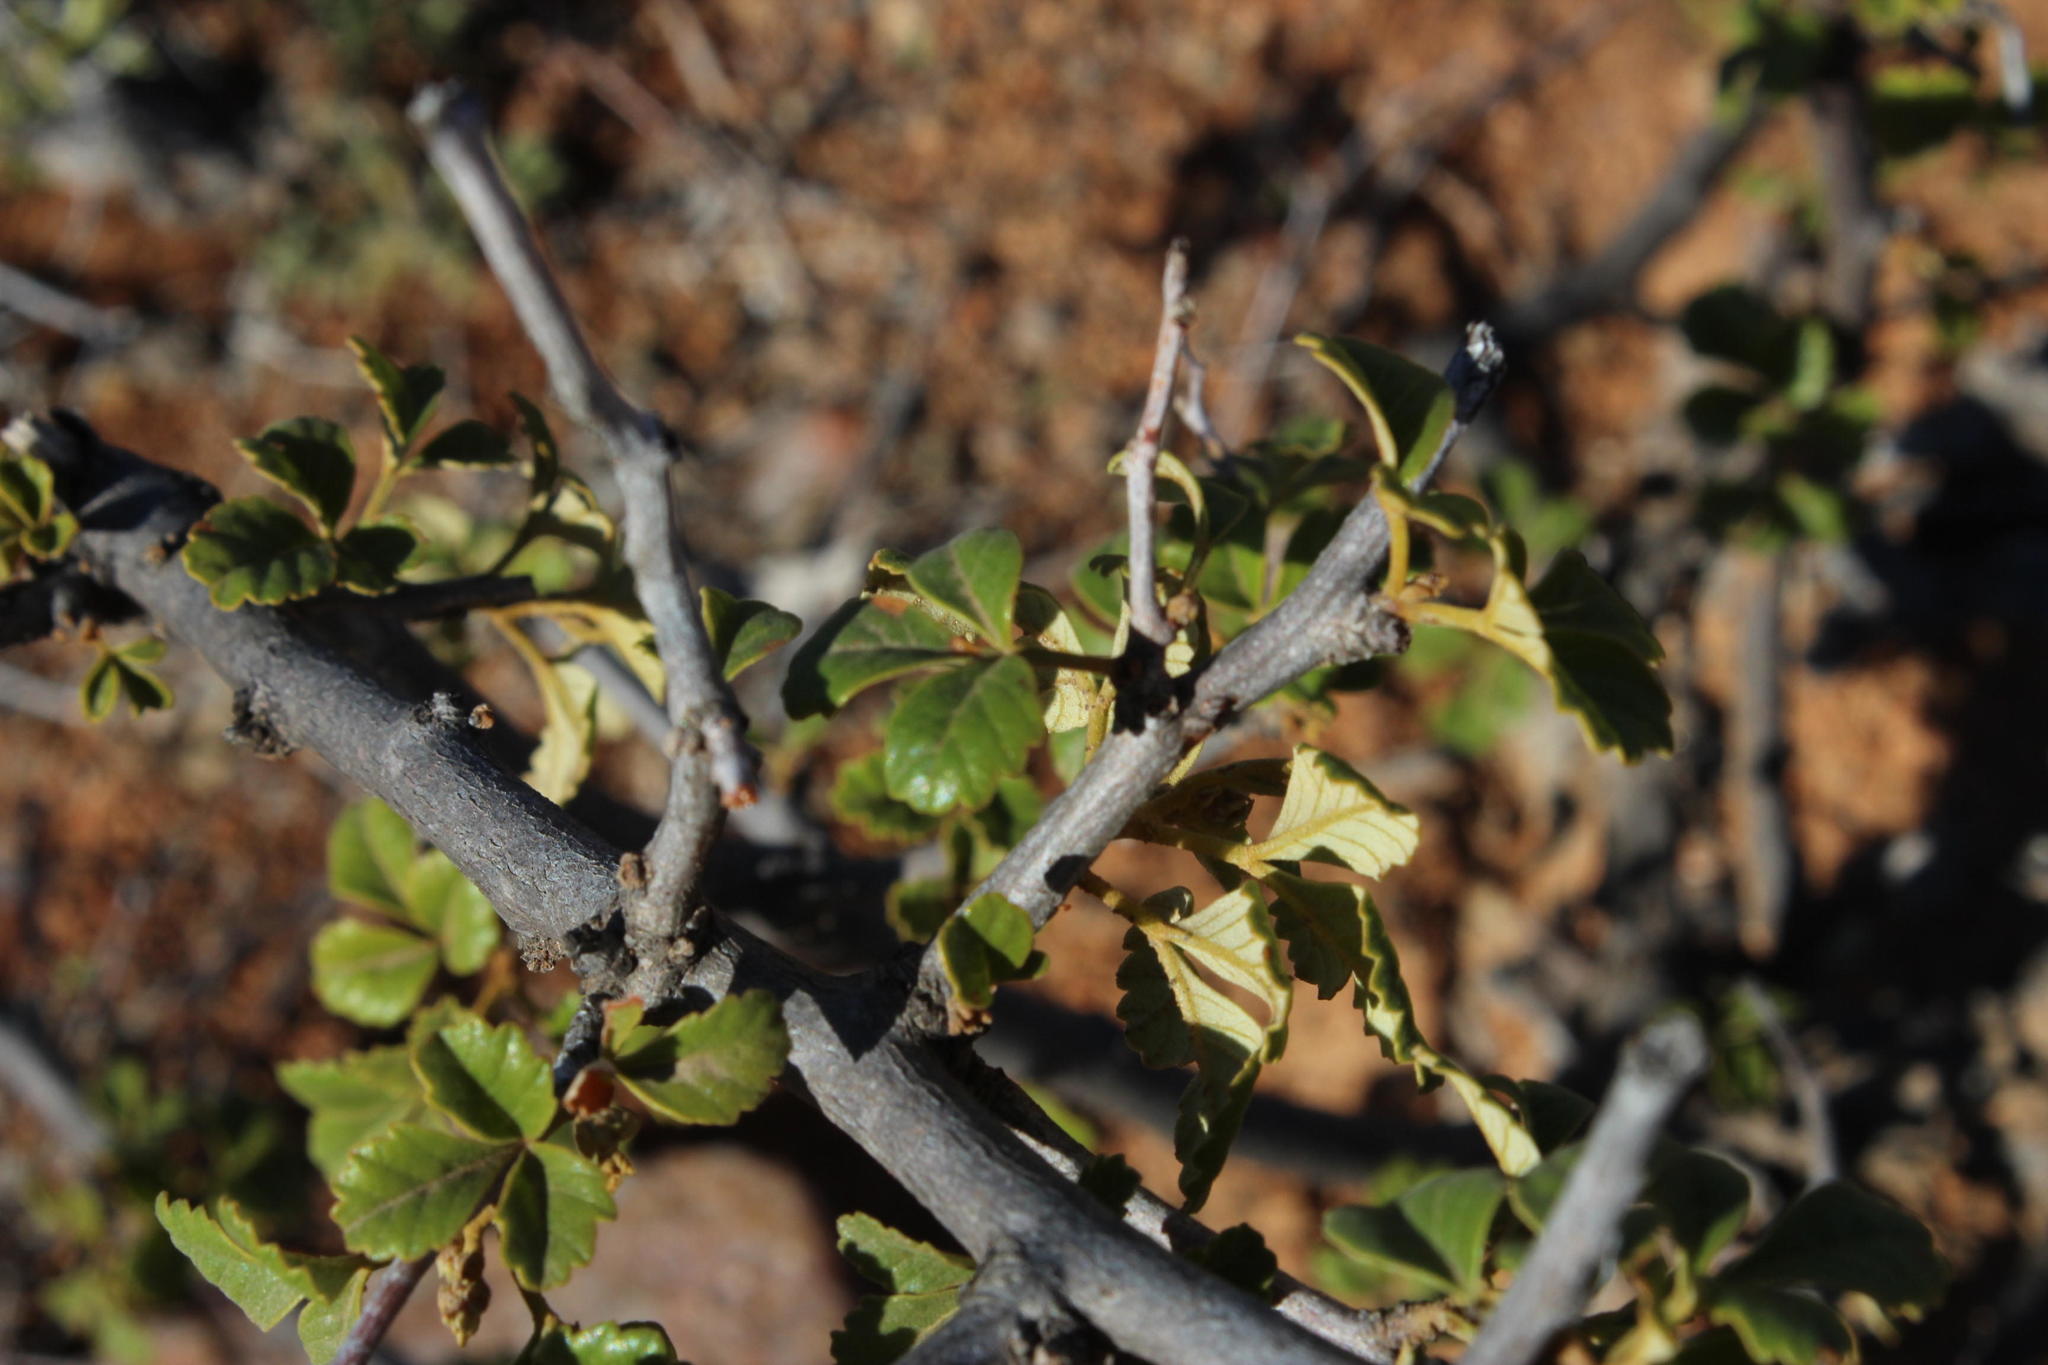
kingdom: Plantae
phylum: Tracheophyta
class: Magnoliopsida
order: Sapindales
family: Anacardiaceae
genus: Searsia
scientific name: Searsia populifolia
